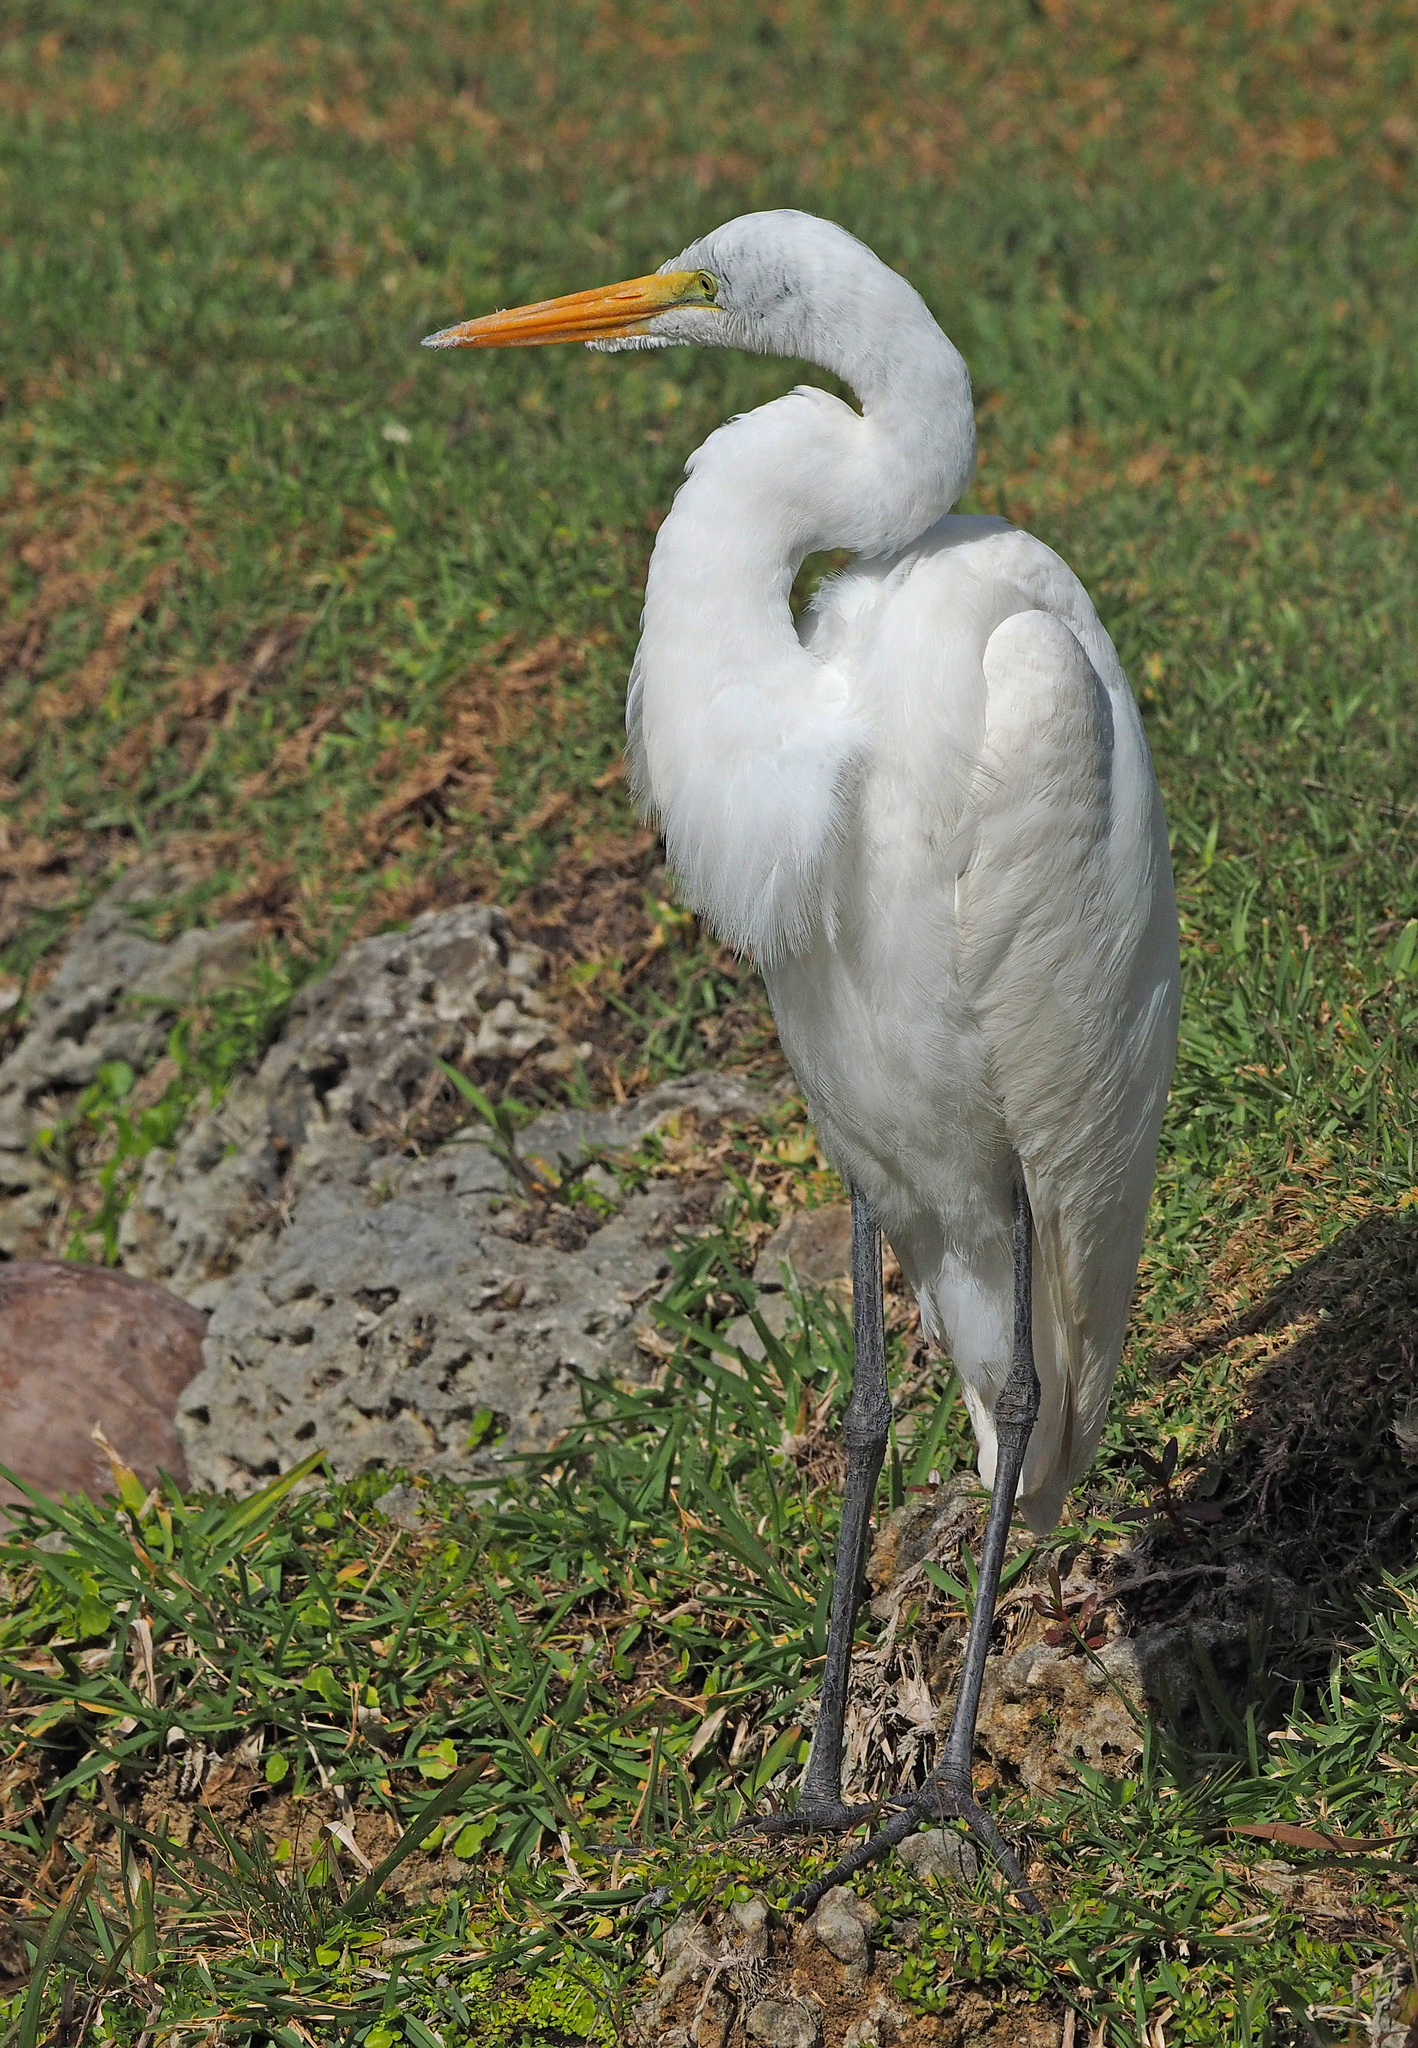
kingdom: Animalia
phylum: Chordata
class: Aves
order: Pelecaniformes
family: Ardeidae
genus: Ardea
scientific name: Ardea alba
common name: Great egret
